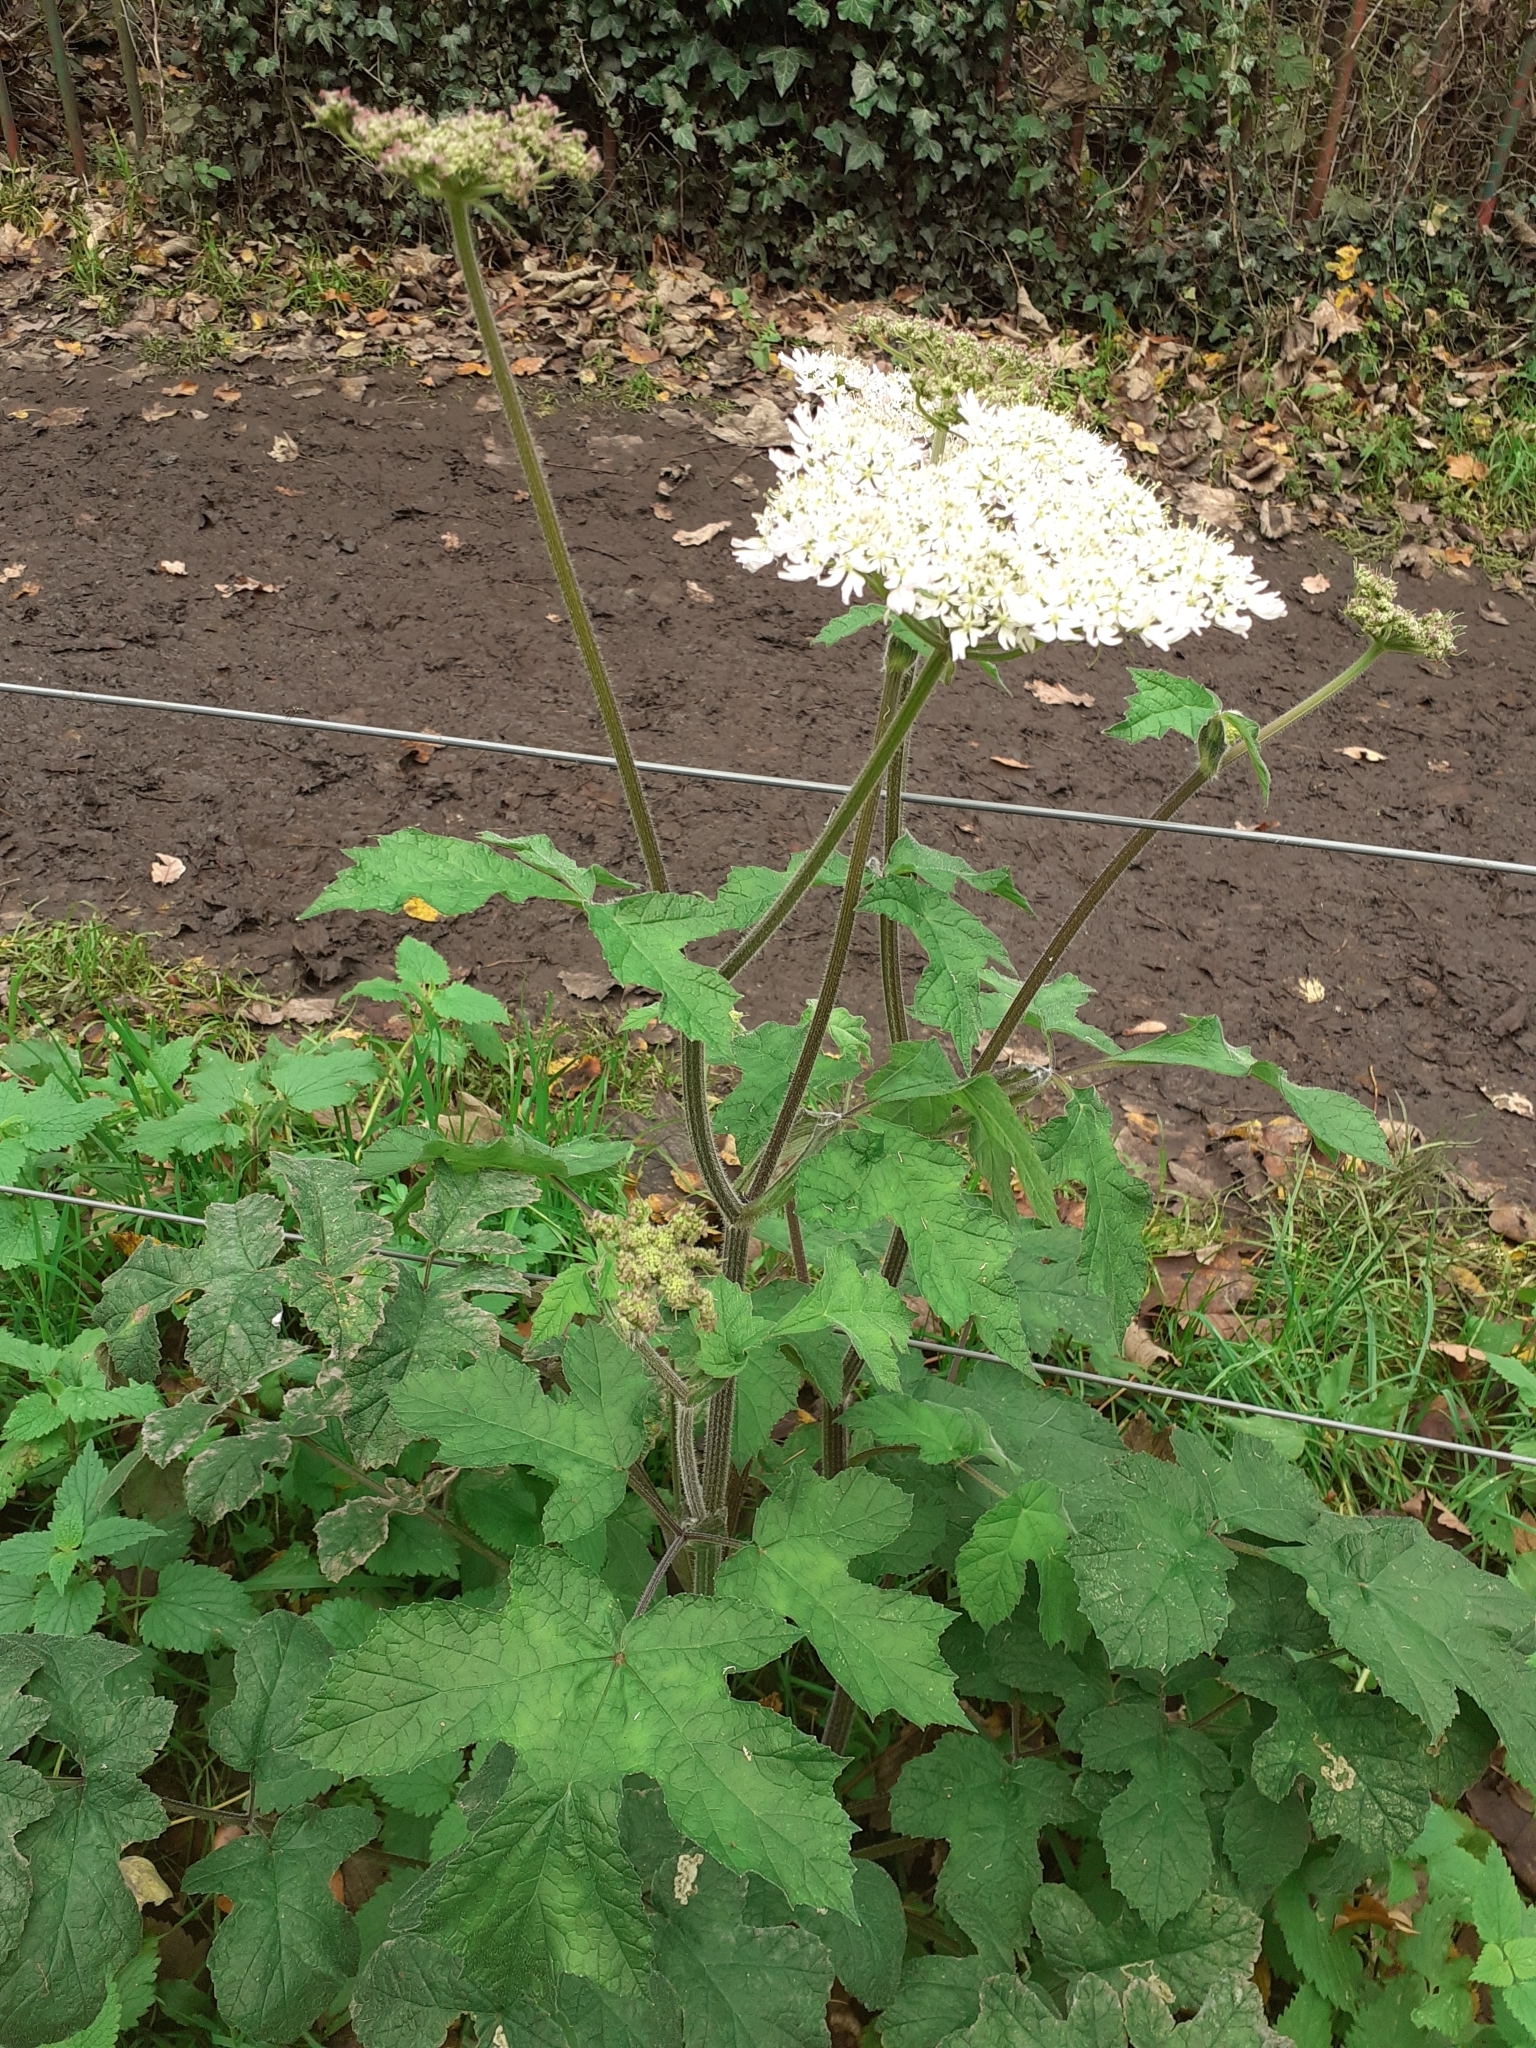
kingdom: Plantae
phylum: Tracheophyta
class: Magnoliopsida
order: Apiales
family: Apiaceae
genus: Heracleum
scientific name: Heracleum sphondylium
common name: Hogweed
